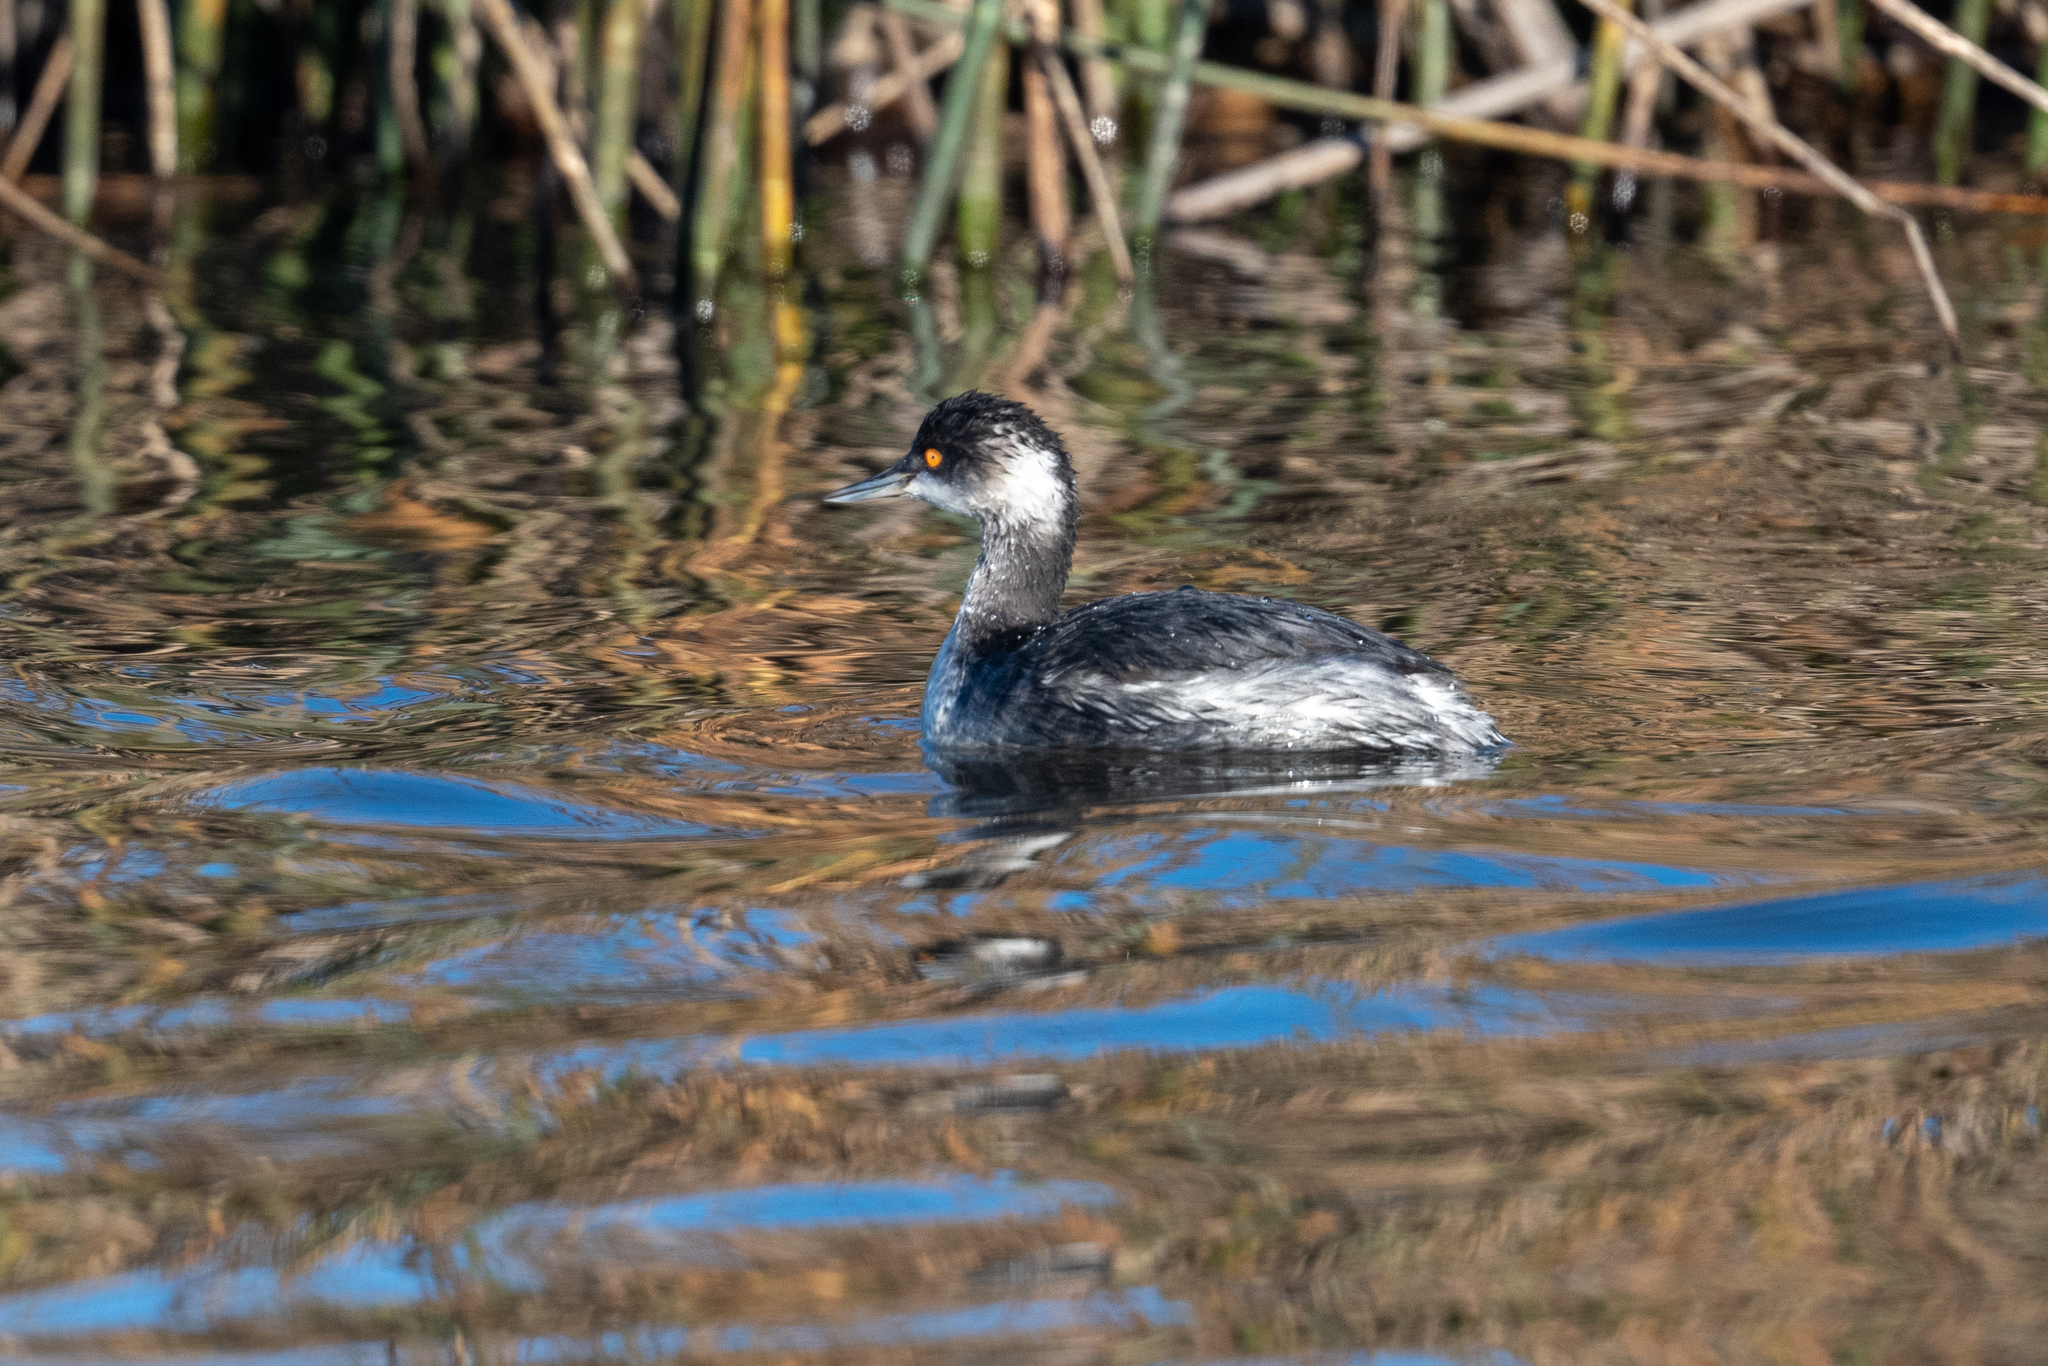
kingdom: Animalia
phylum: Chordata
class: Aves
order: Podicipediformes
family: Podicipedidae
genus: Podiceps
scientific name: Podiceps nigricollis
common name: Black-necked grebe
